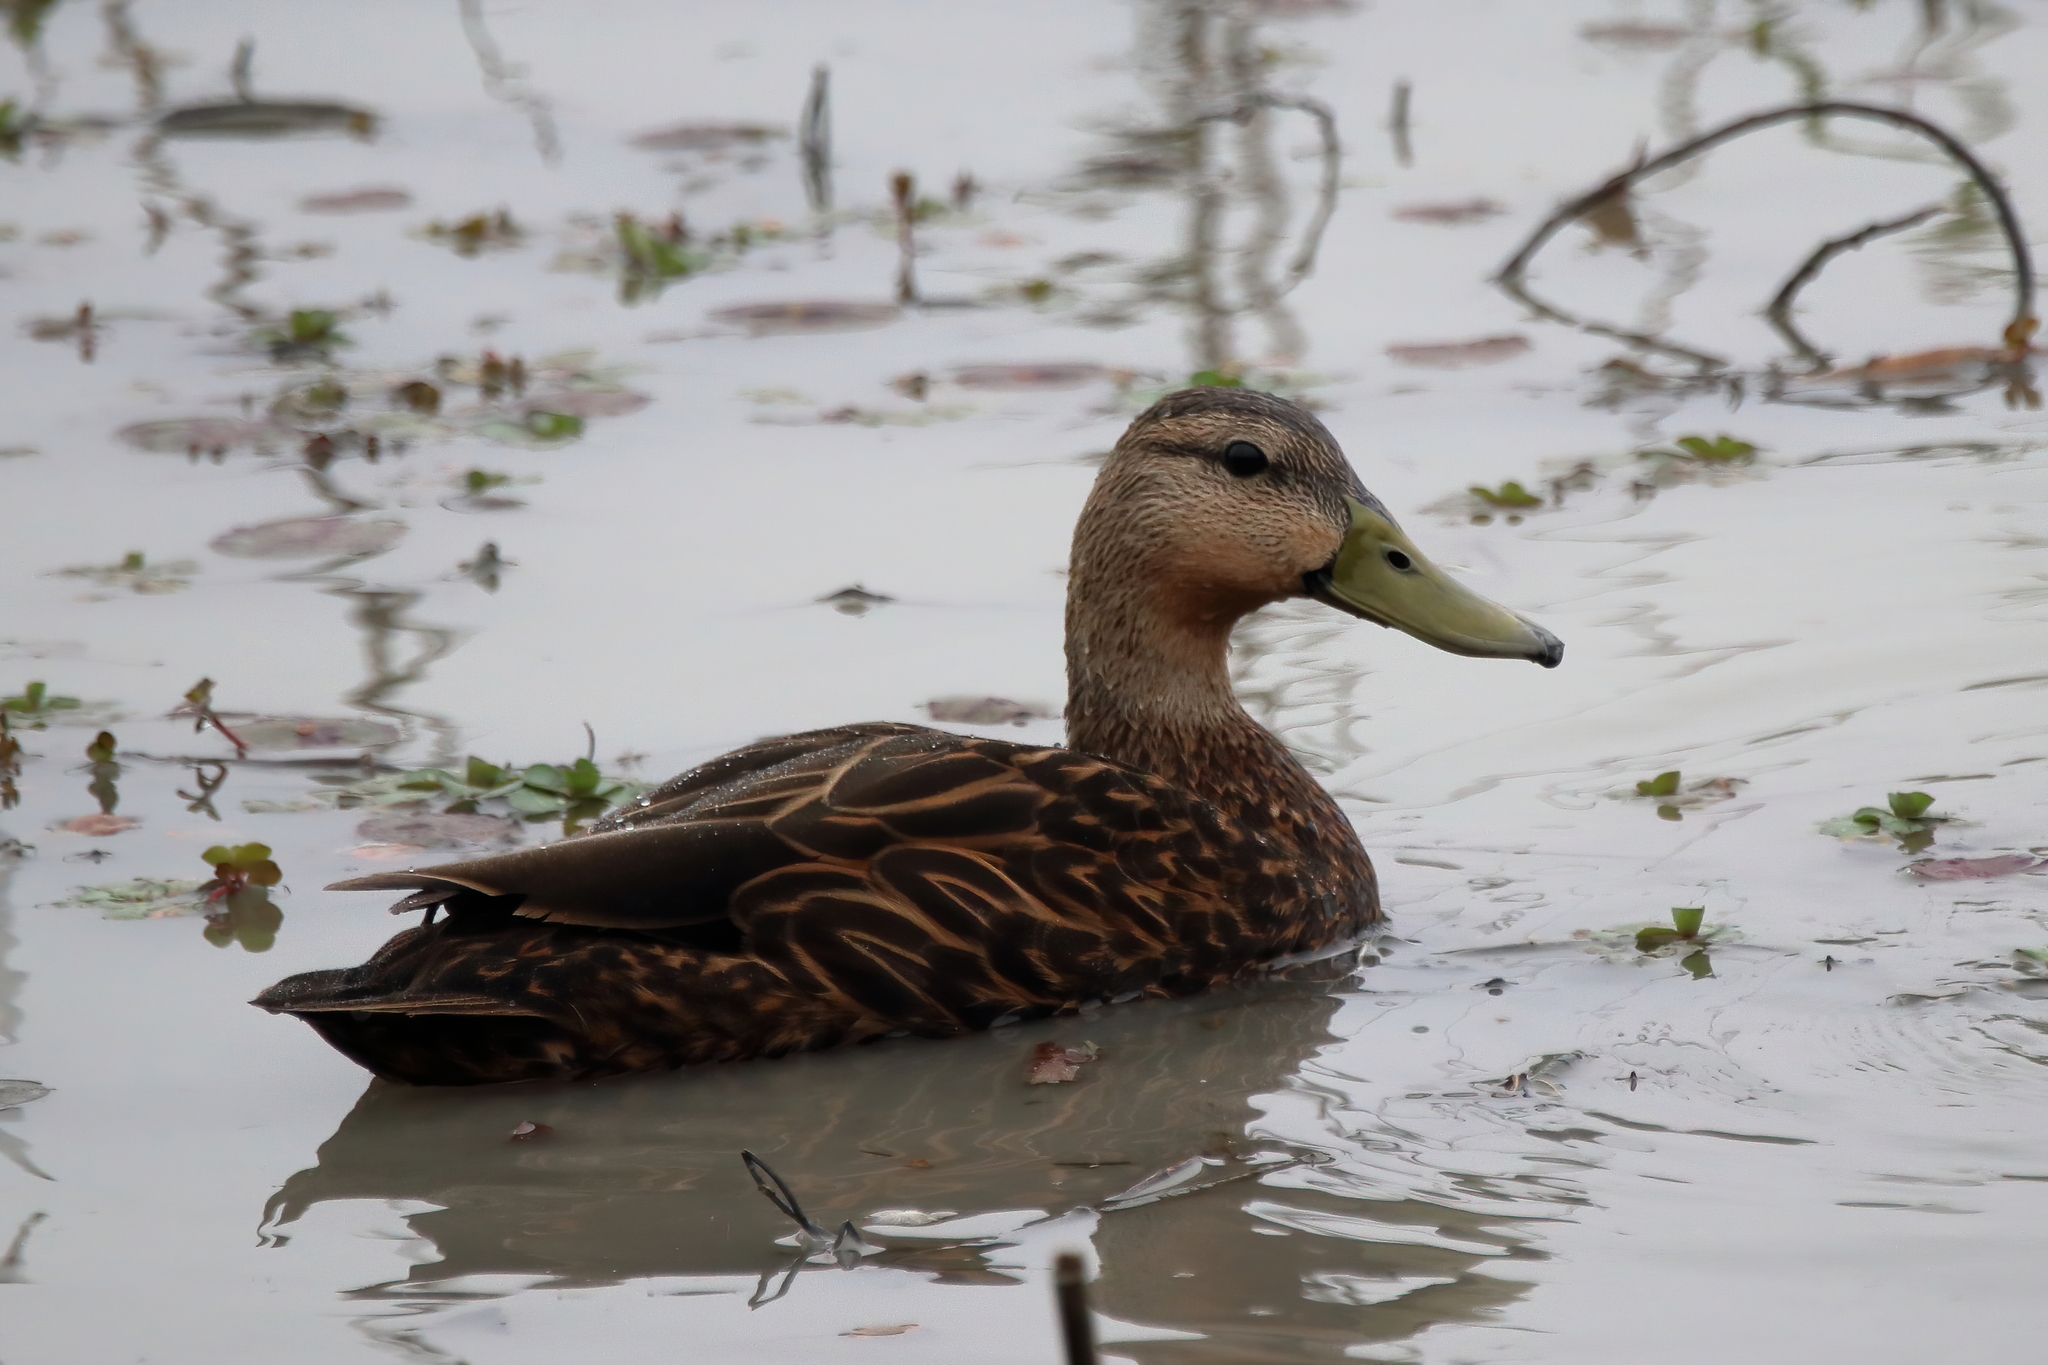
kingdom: Animalia
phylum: Chordata
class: Aves
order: Anseriformes
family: Anatidae
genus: Anas
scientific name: Anas fulvigula
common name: Mottled duck
